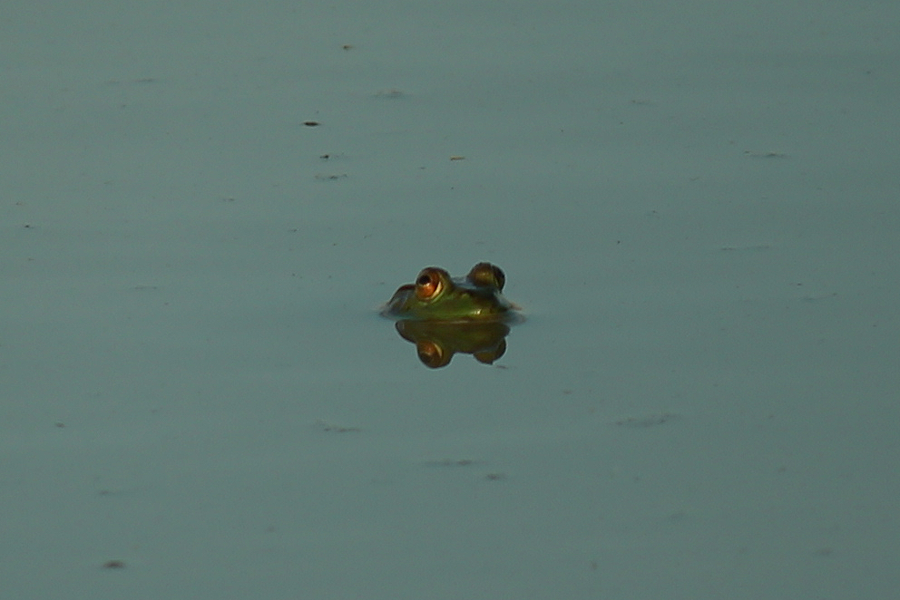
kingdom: Animalia
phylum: Chordata
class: Amphibia
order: Anura
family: Ranidae
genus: Lithobates
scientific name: Lithobates catesbeianus
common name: American bullfrog
